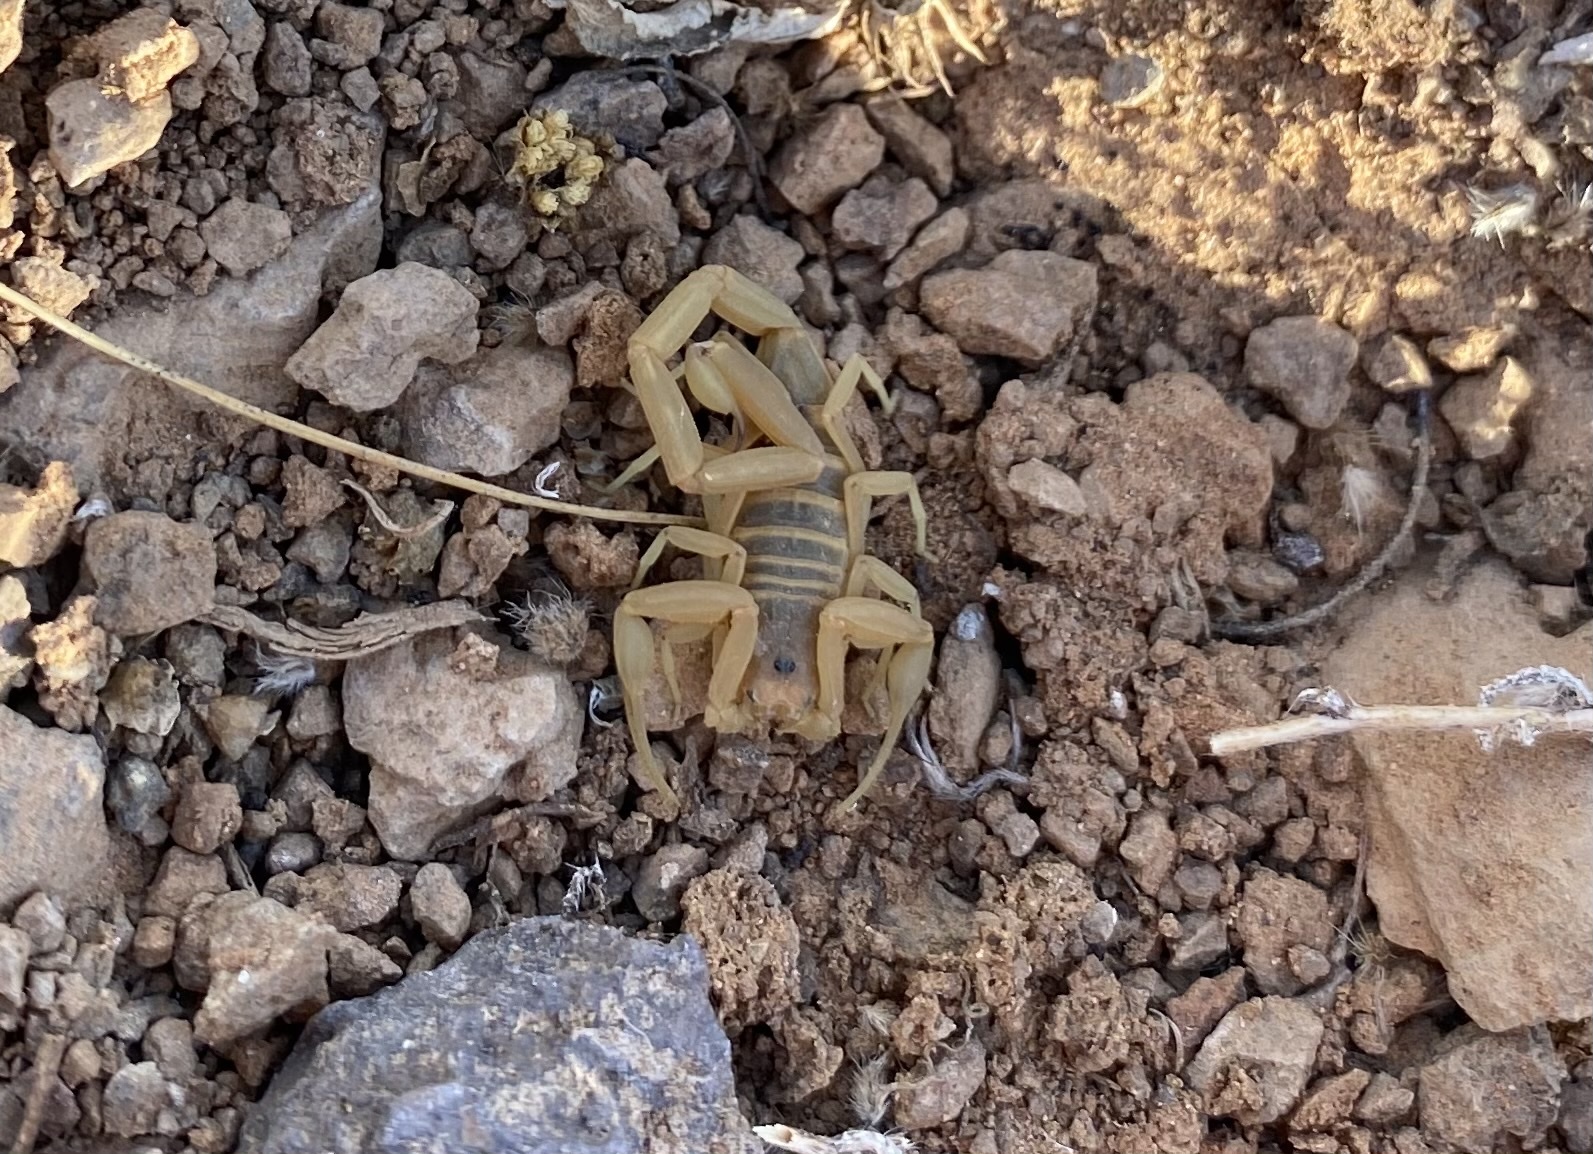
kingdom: Animalia
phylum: Arthropoda
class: Arachnida
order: Scorpiones
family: Buthidae
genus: Centruroides
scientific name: Centruroides sculpturatus
